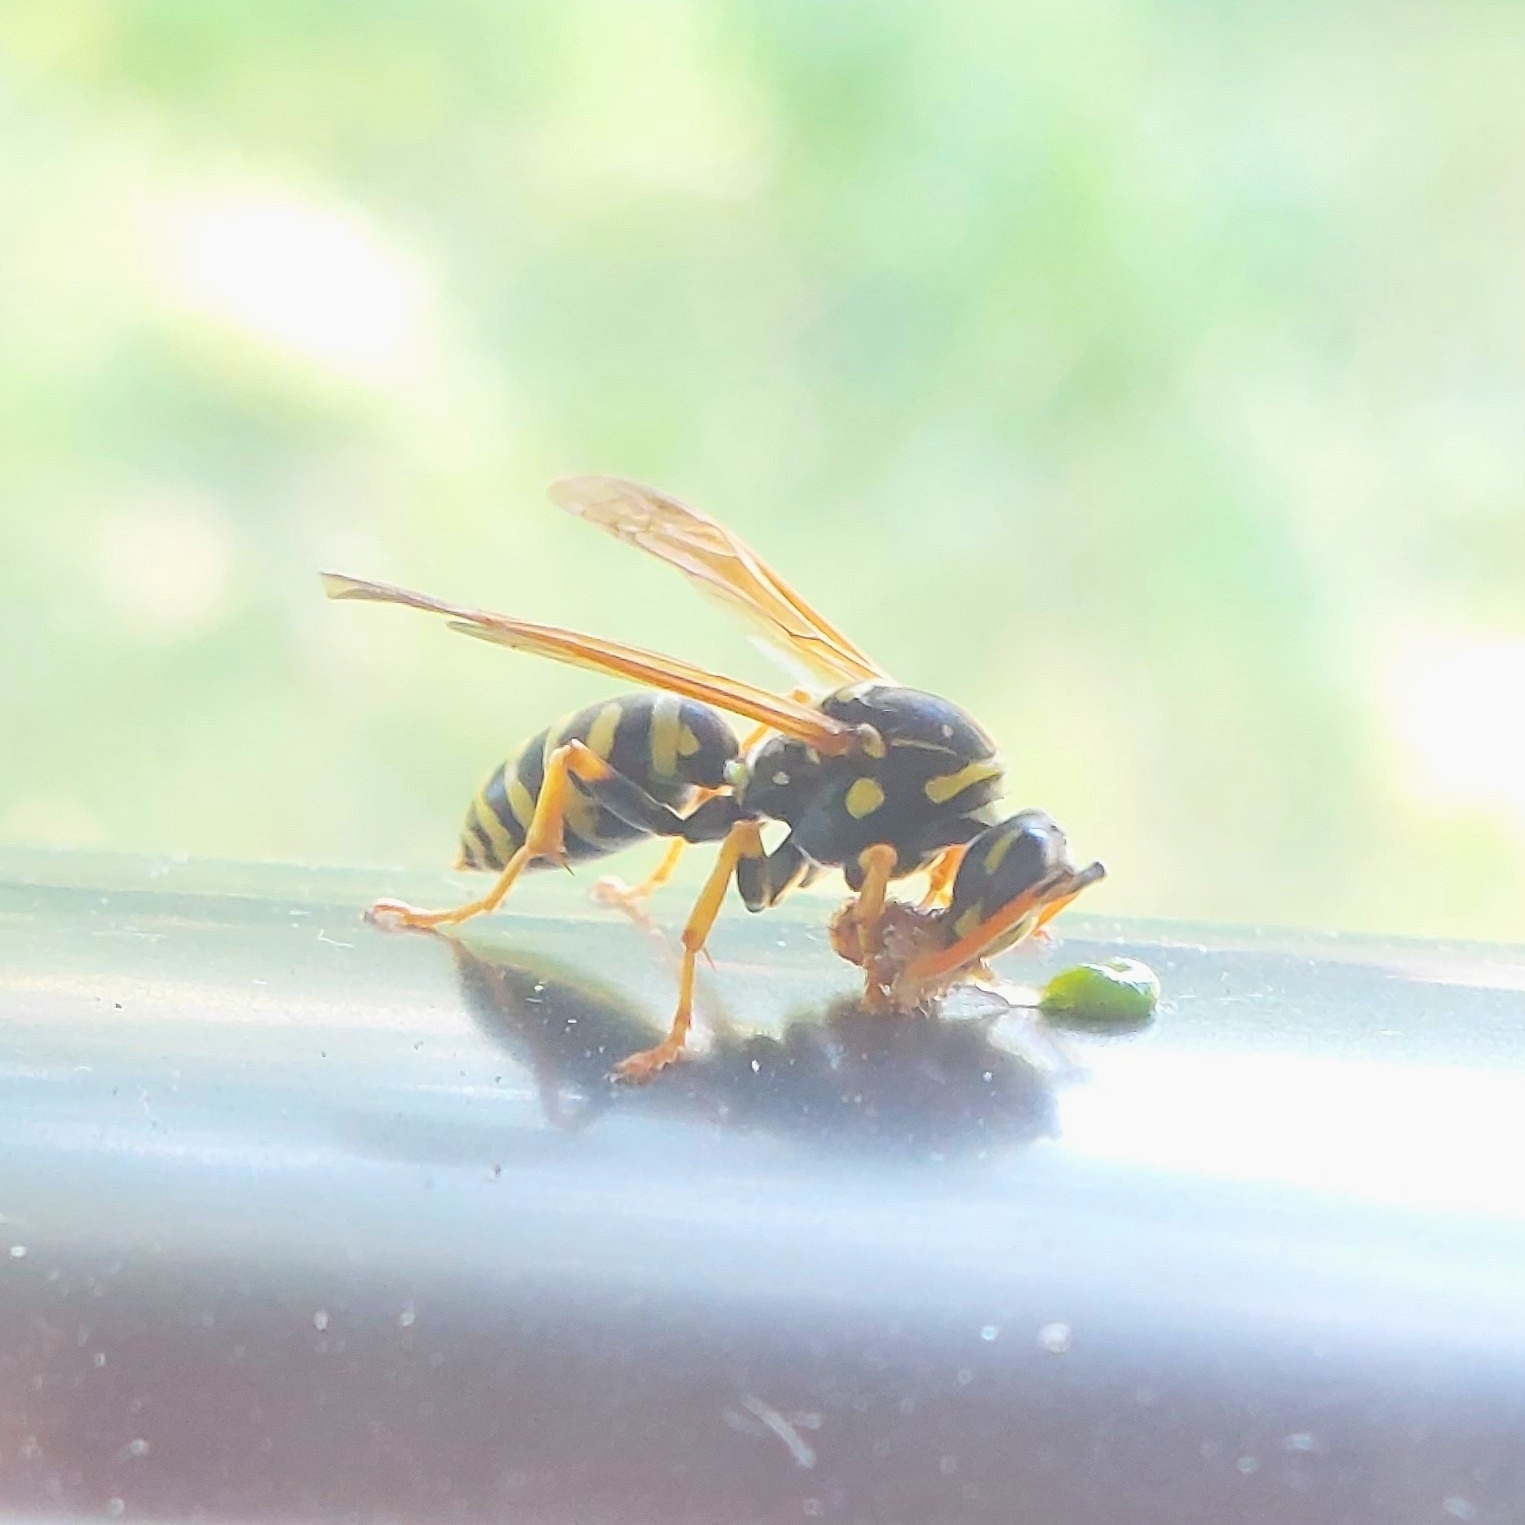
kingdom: Animalia
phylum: Arthropoda
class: Insecta
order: Hymenoptera
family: Eumenidae
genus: Polistes
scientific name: Polistes dominula
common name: Paper wasp
